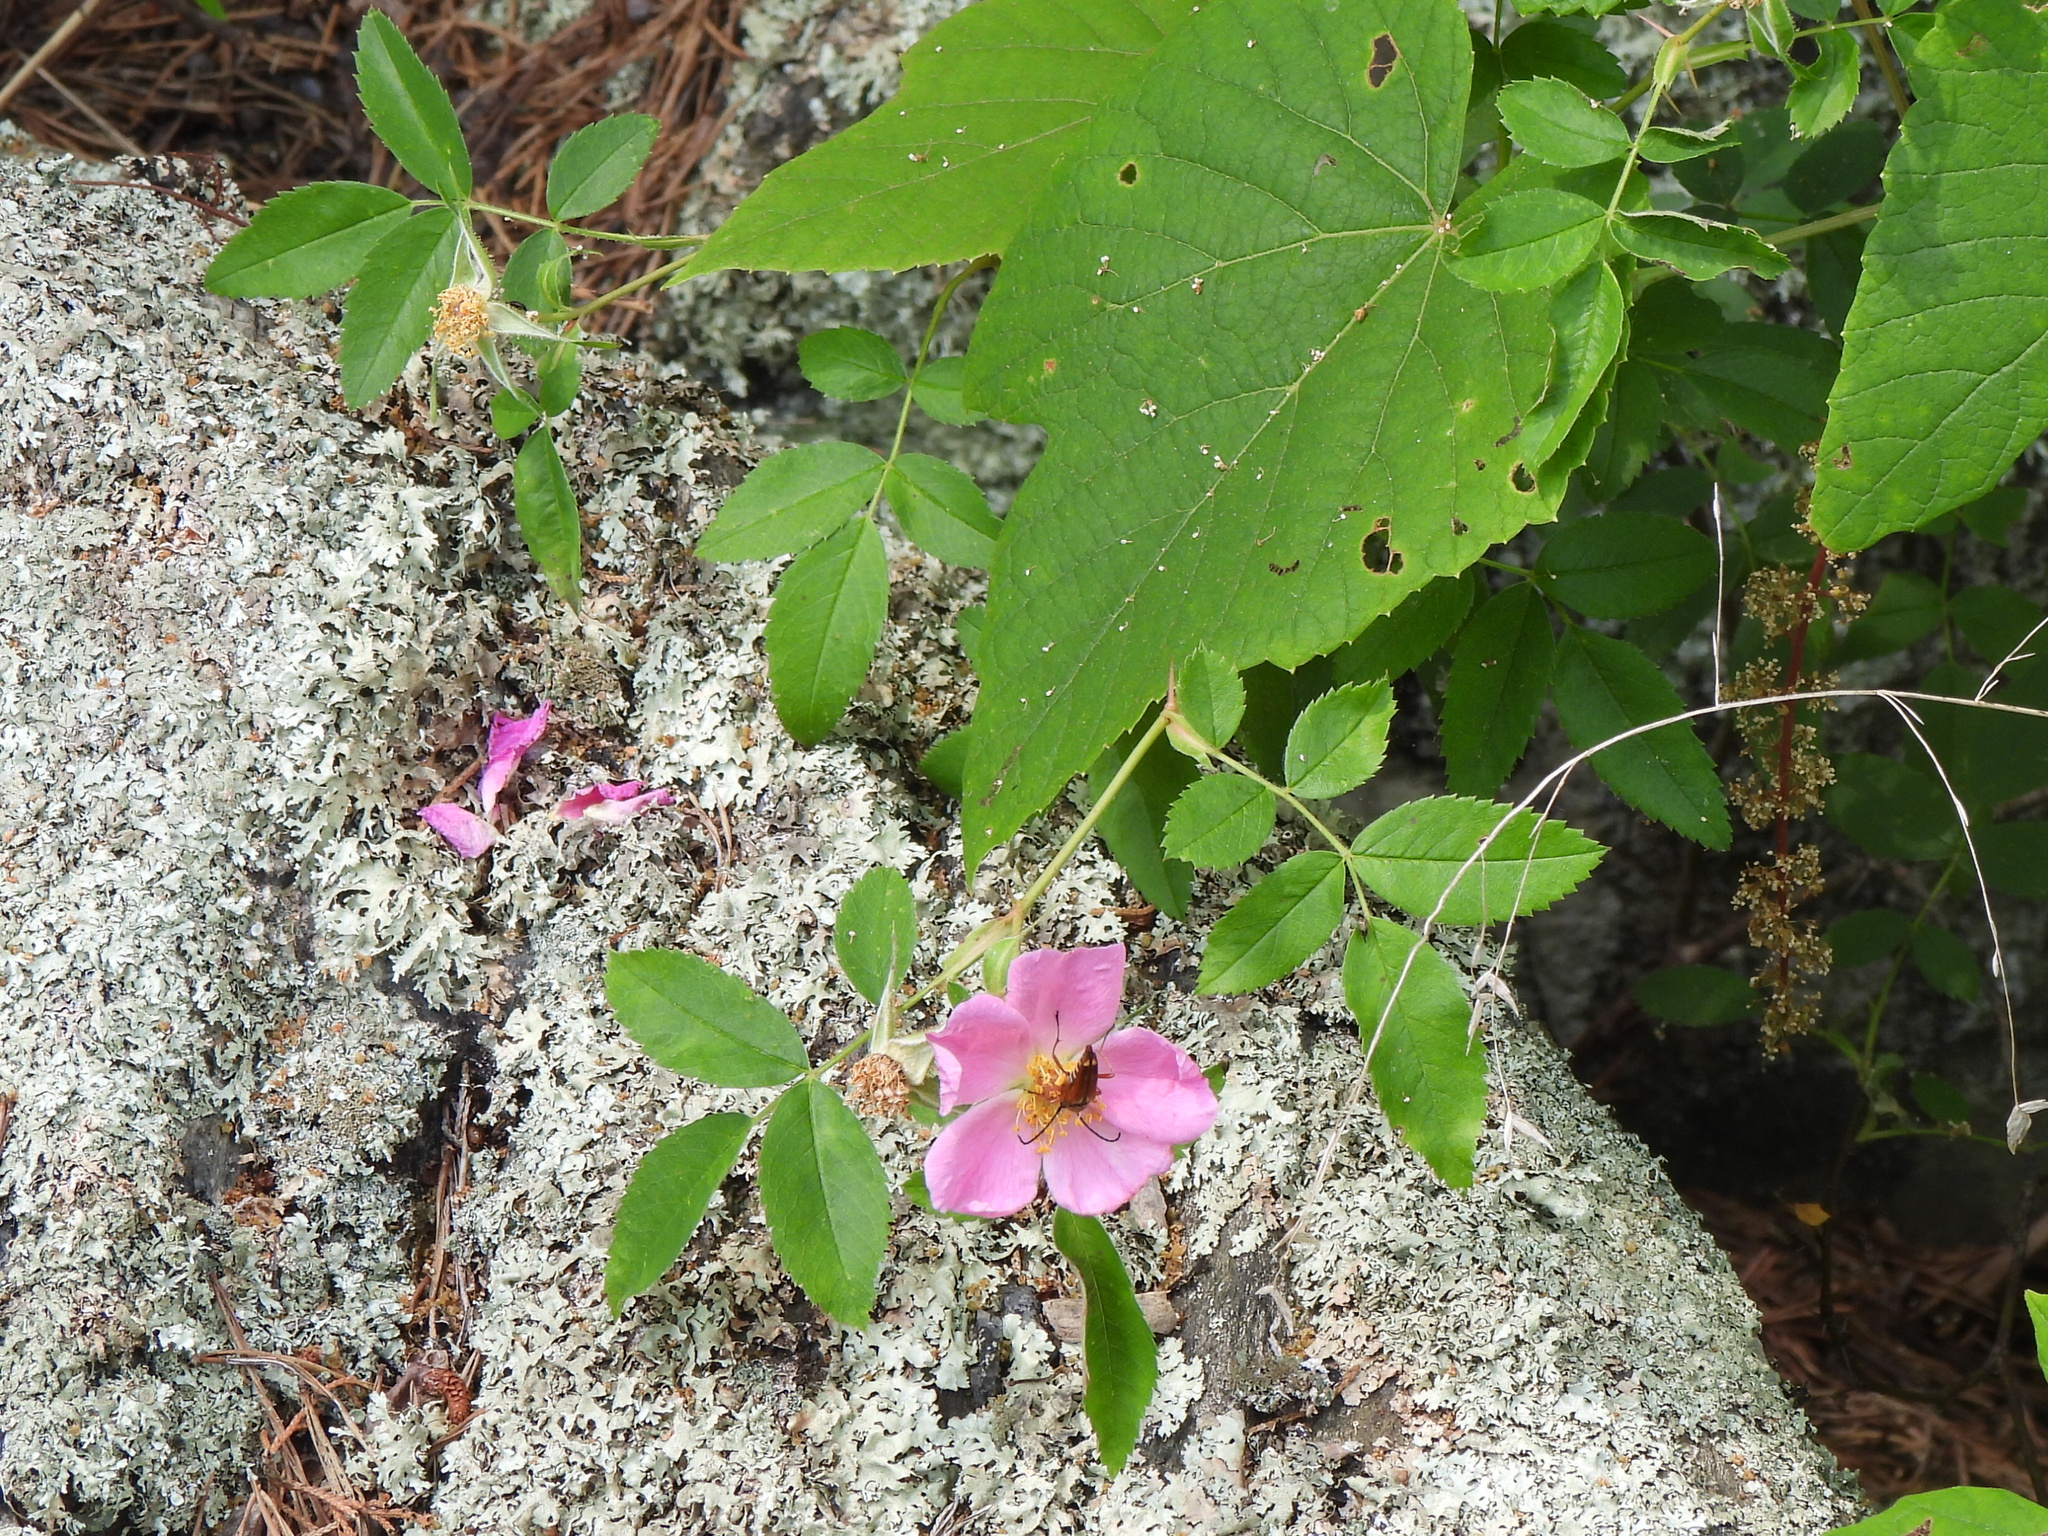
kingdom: Plantae
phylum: Tracheophyta
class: Magnoliopsida
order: Rosales
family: Rosaceae
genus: Rosa
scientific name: Rosa carolina
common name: Pasture rose
